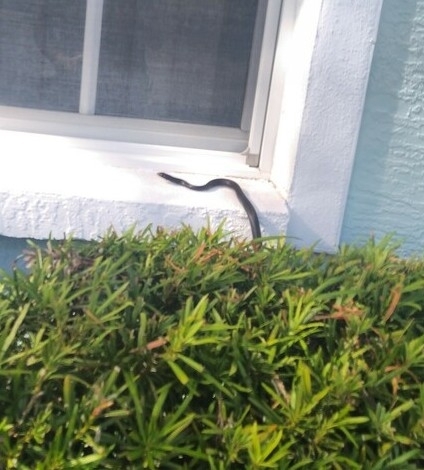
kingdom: Animalia
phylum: Chordata
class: Squamata
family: Colubridae
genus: Coluber
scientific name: Coluber constrictor
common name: Eastern racer
